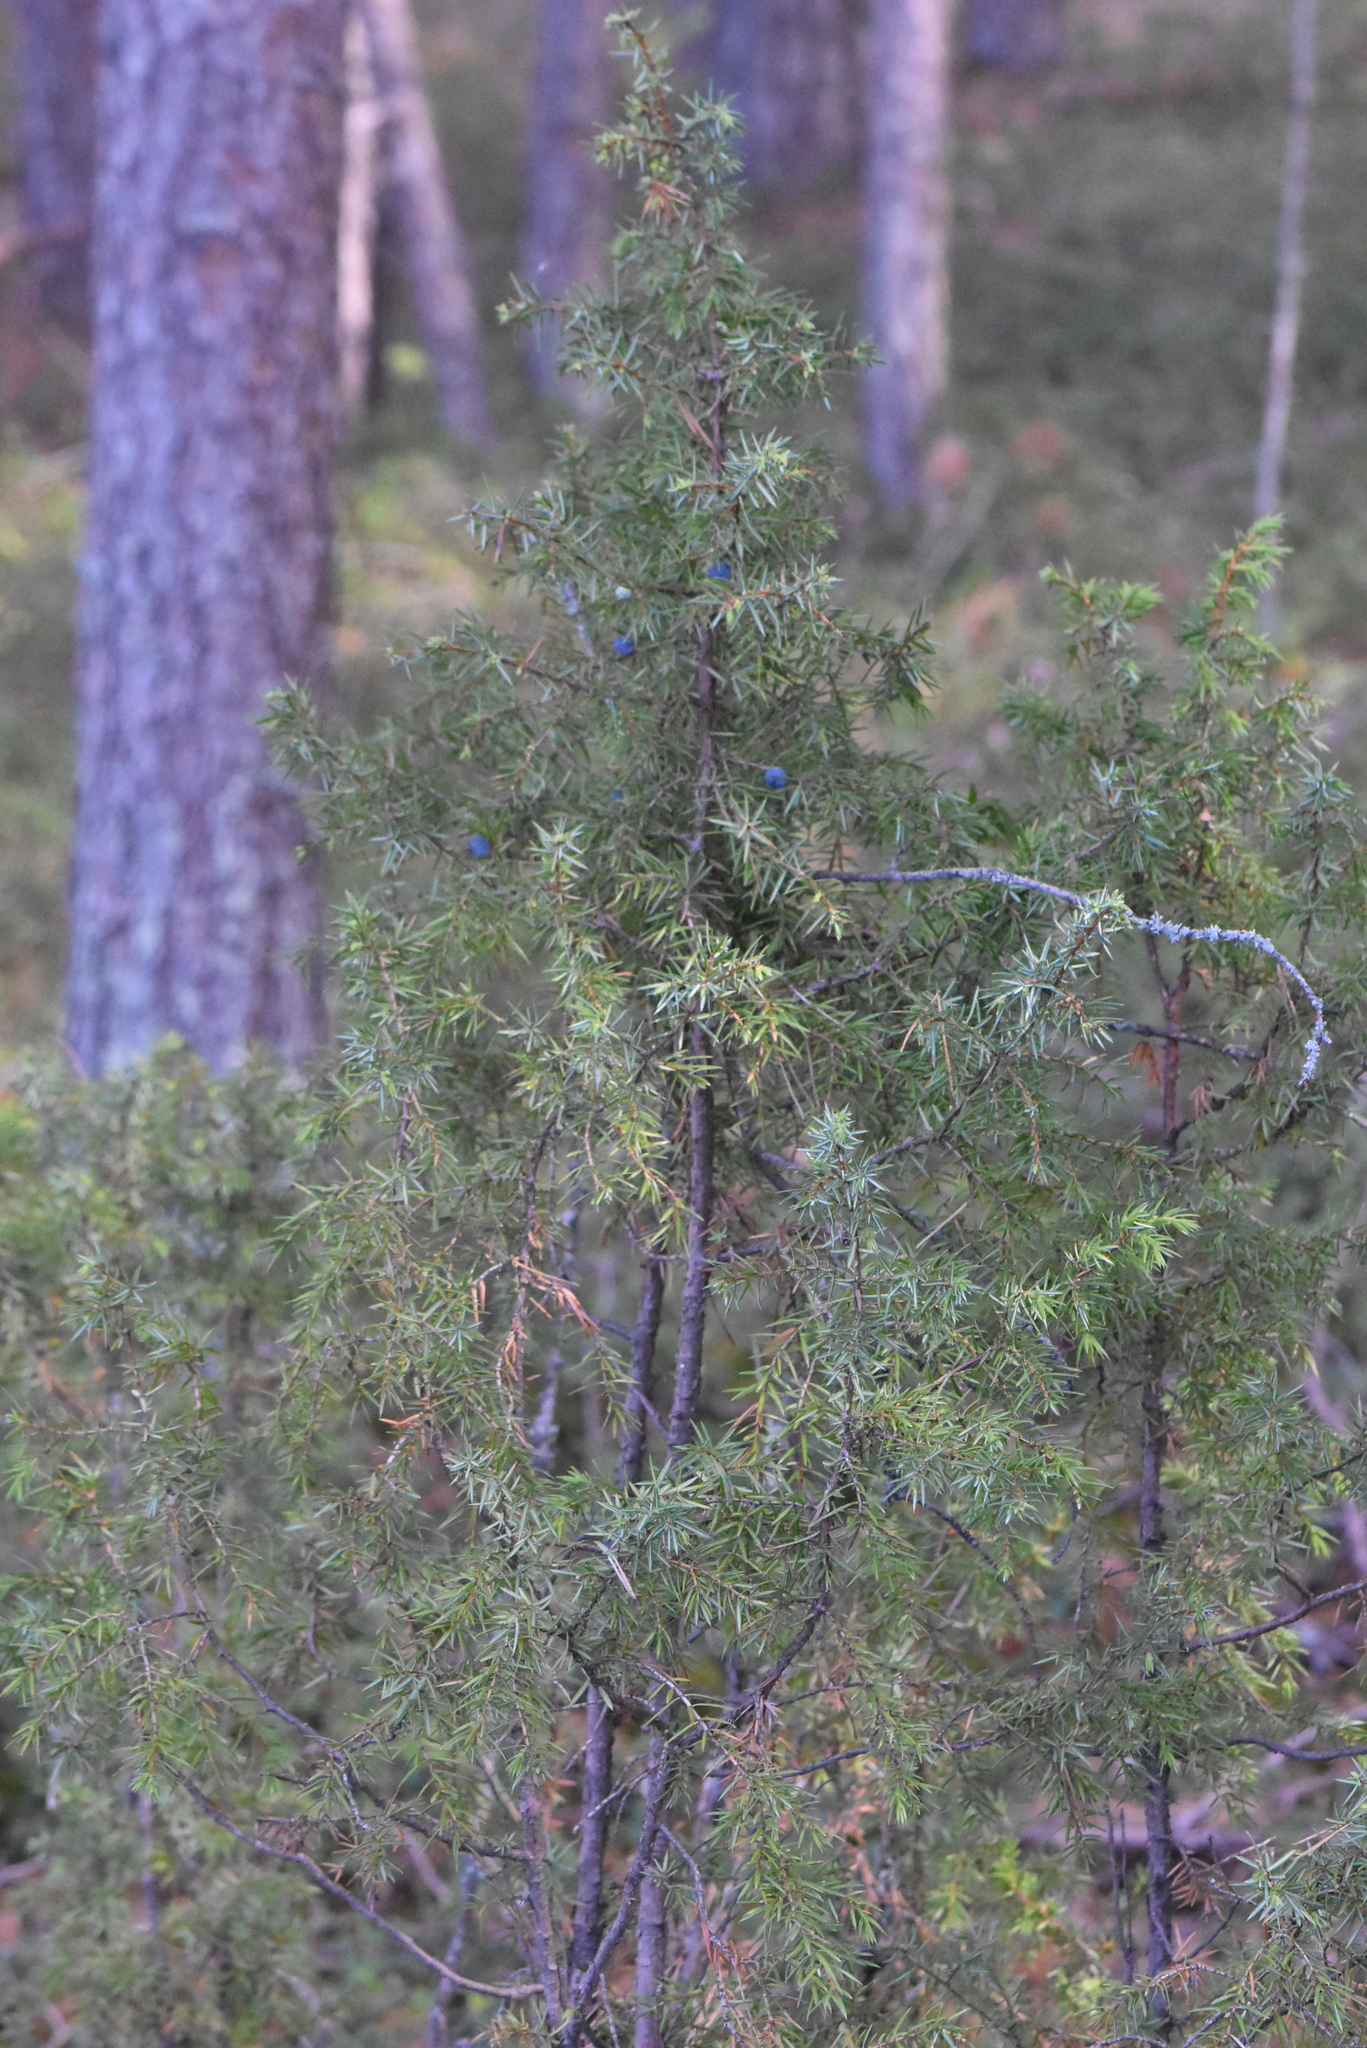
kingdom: Plantae
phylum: Tracheophyta
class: Pinopsida
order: Pinales
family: Cupressaceae
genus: Juniperus
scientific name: Juniperus communis
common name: Common juniper
